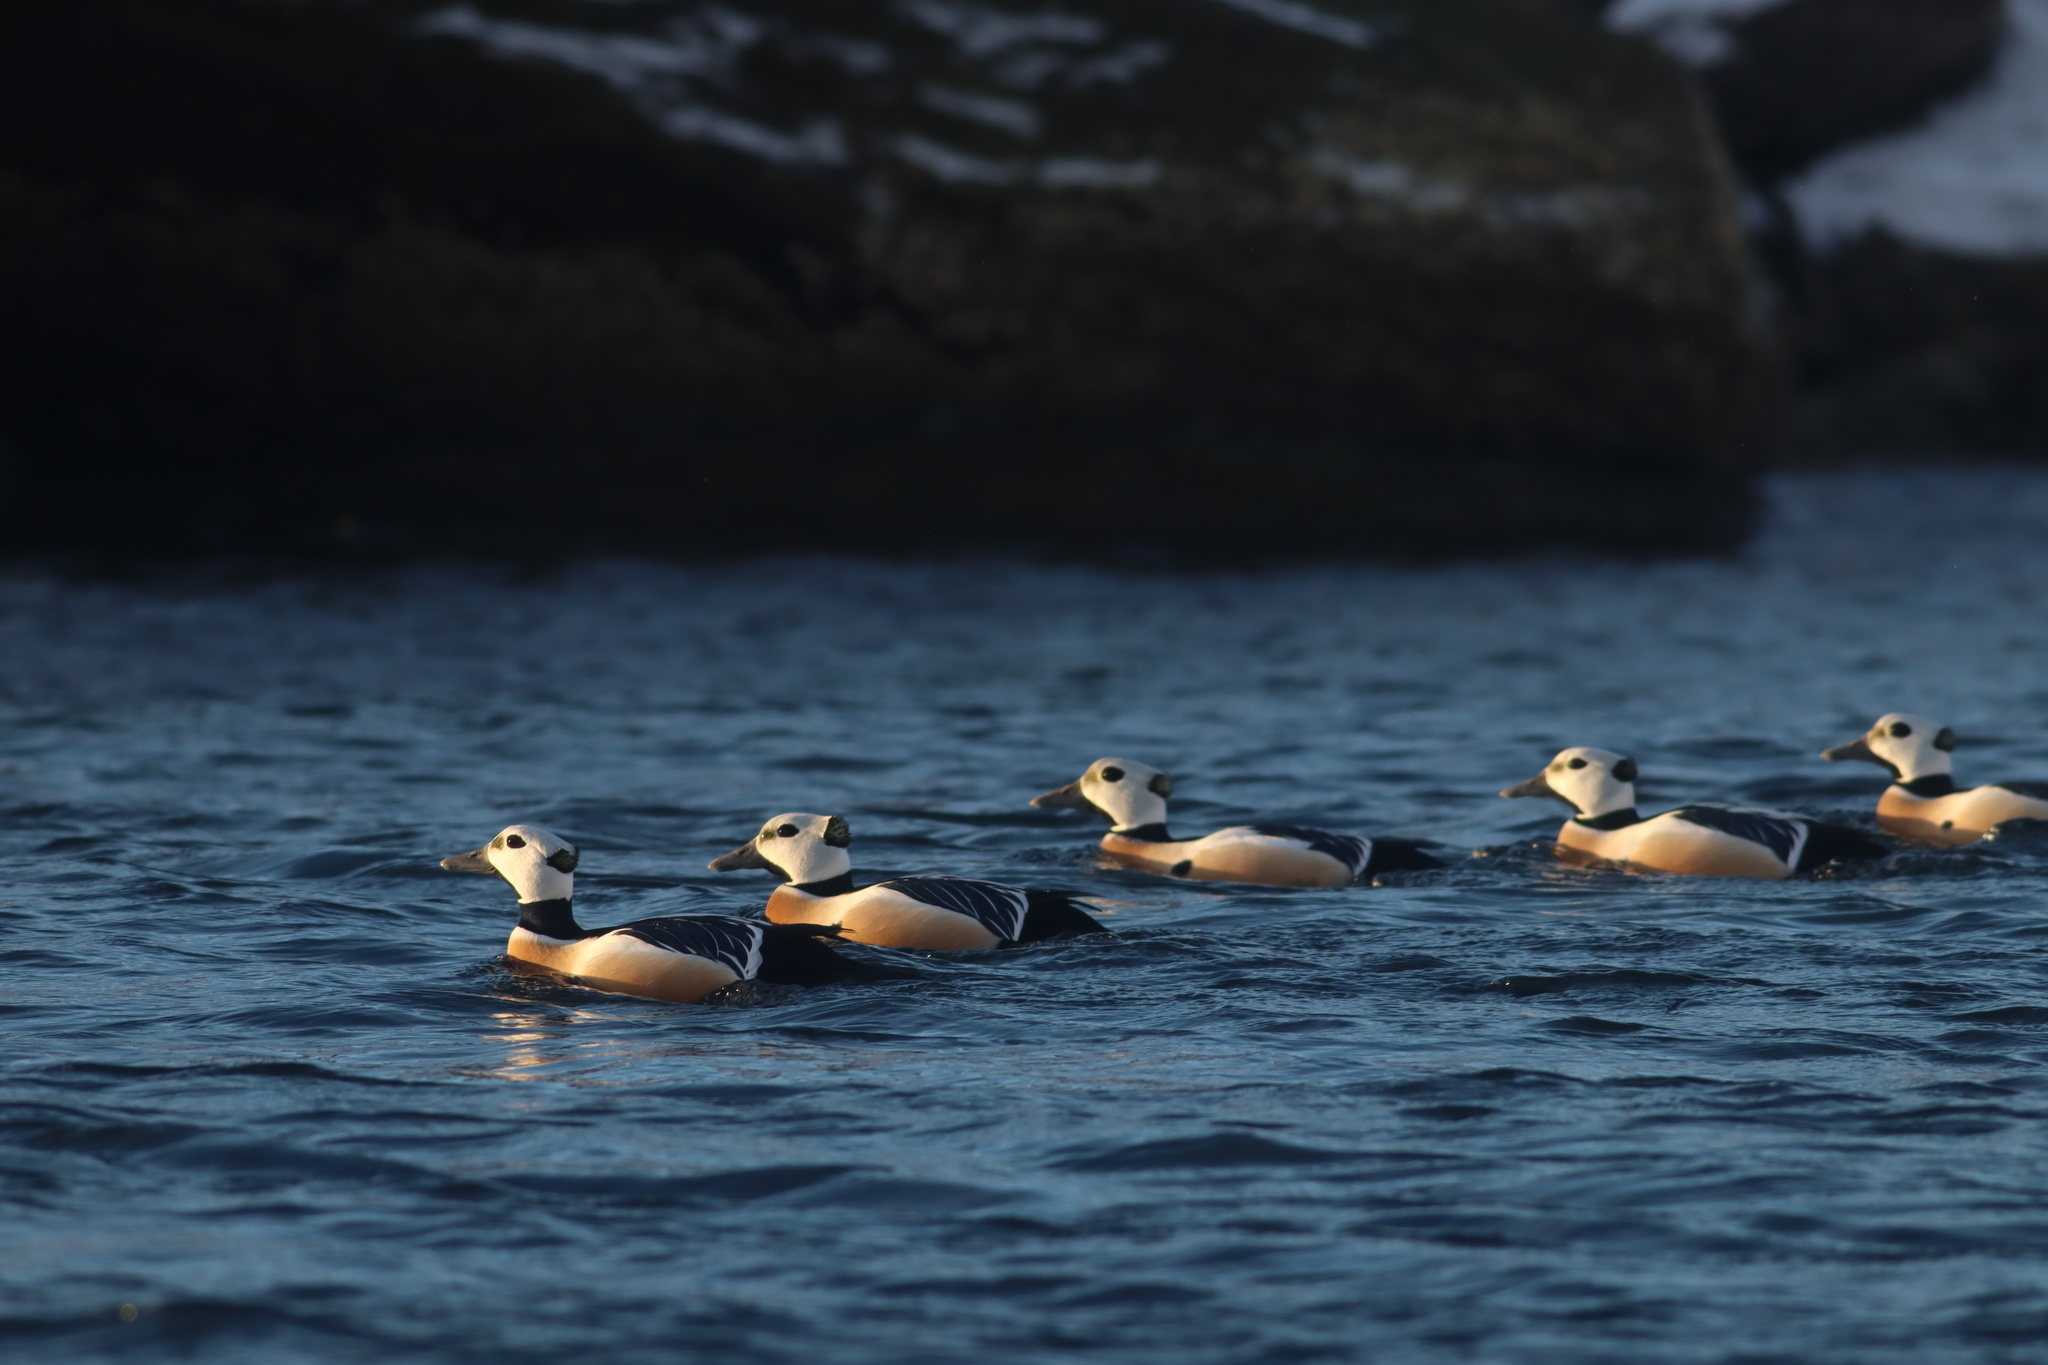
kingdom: Animalia
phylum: Chordata
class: Aves
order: Anseriformes
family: Anatidae
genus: Polysticta
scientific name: Polysticta stelleri
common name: Steller's eider
